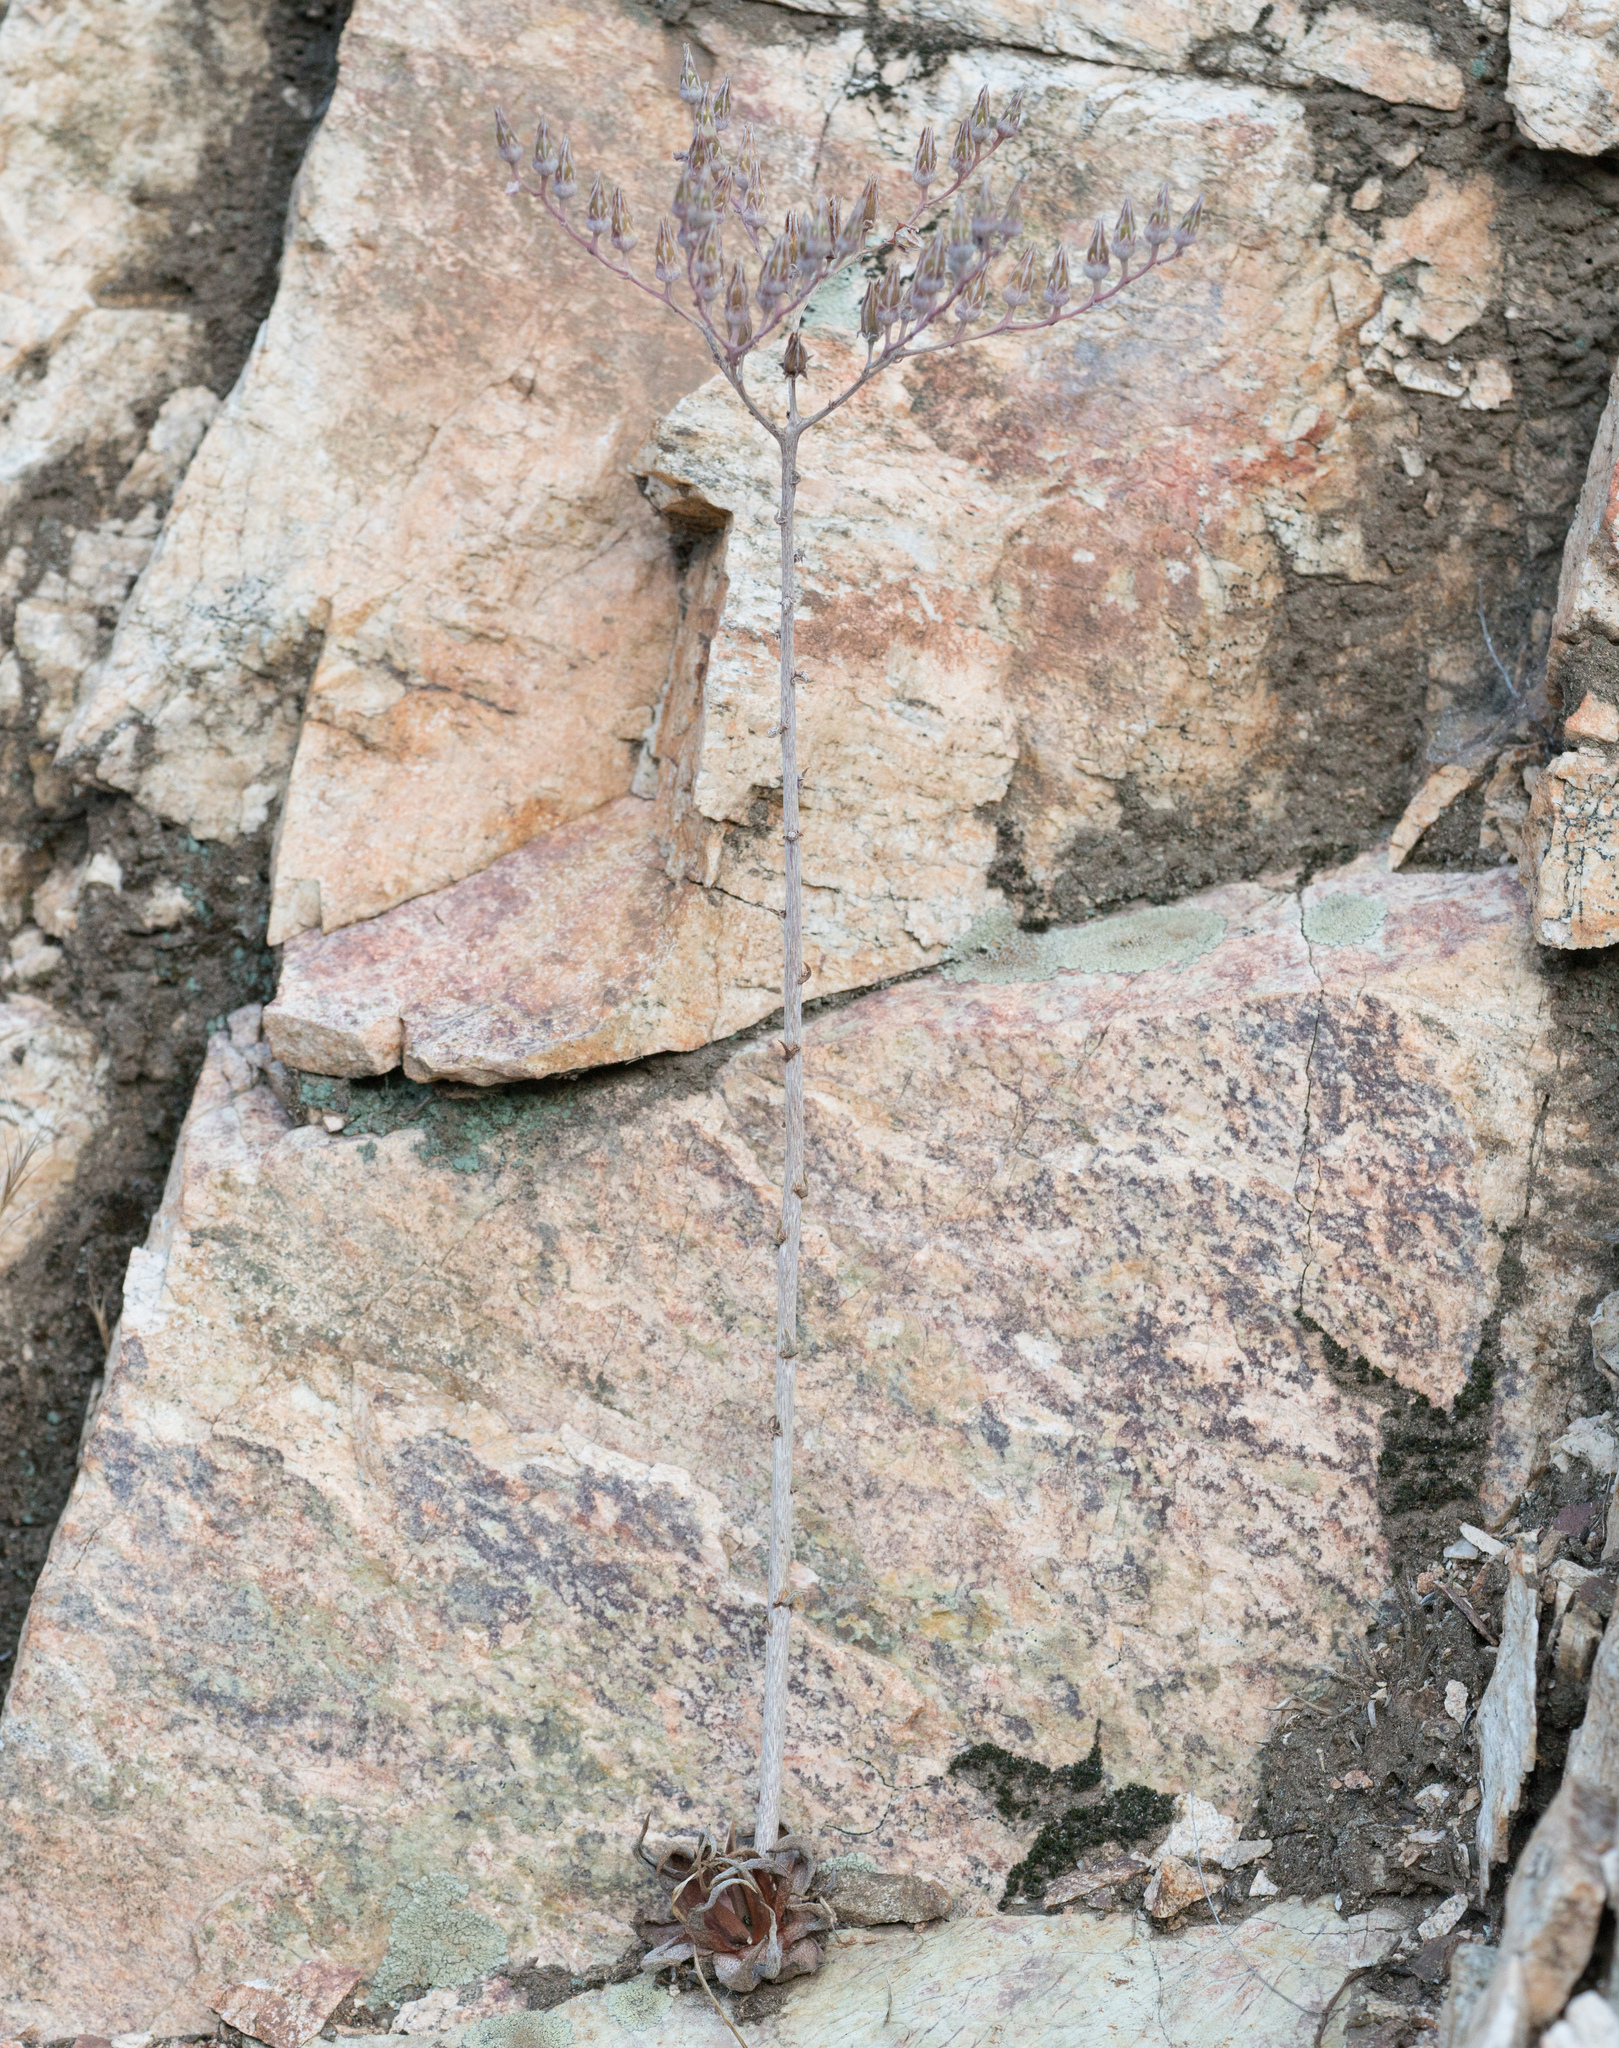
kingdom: Plantae
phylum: Tracheophyta
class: Magnoliopsida
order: Saxifragales
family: Crassulaceae
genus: Dudleya
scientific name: Dudleya
